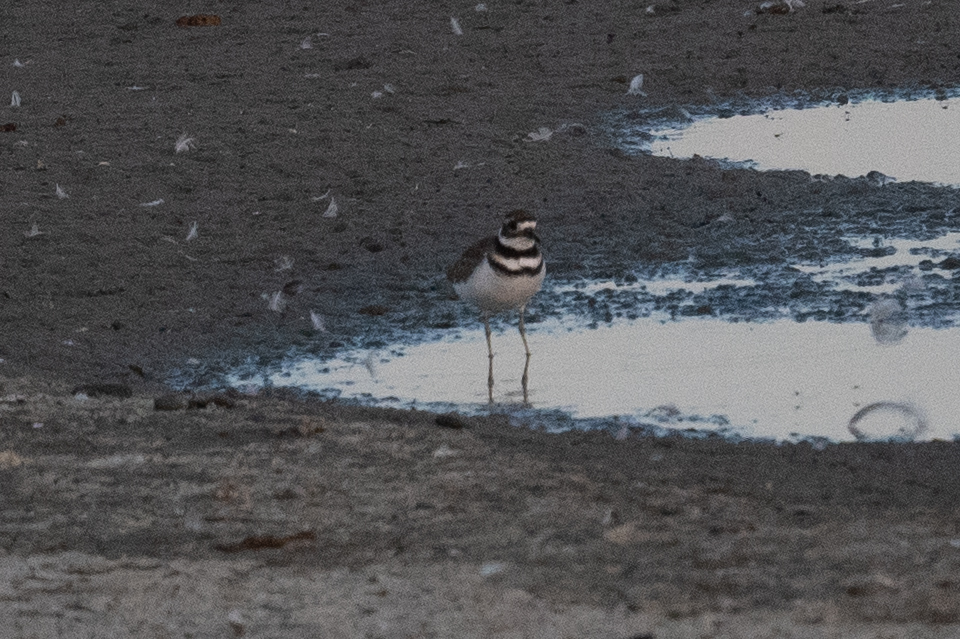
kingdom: Animalia
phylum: Chordata
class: Aves
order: Charadriiformes
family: Charadriidae
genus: Charadrius
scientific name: Charadrius vociferus
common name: Killdeer
